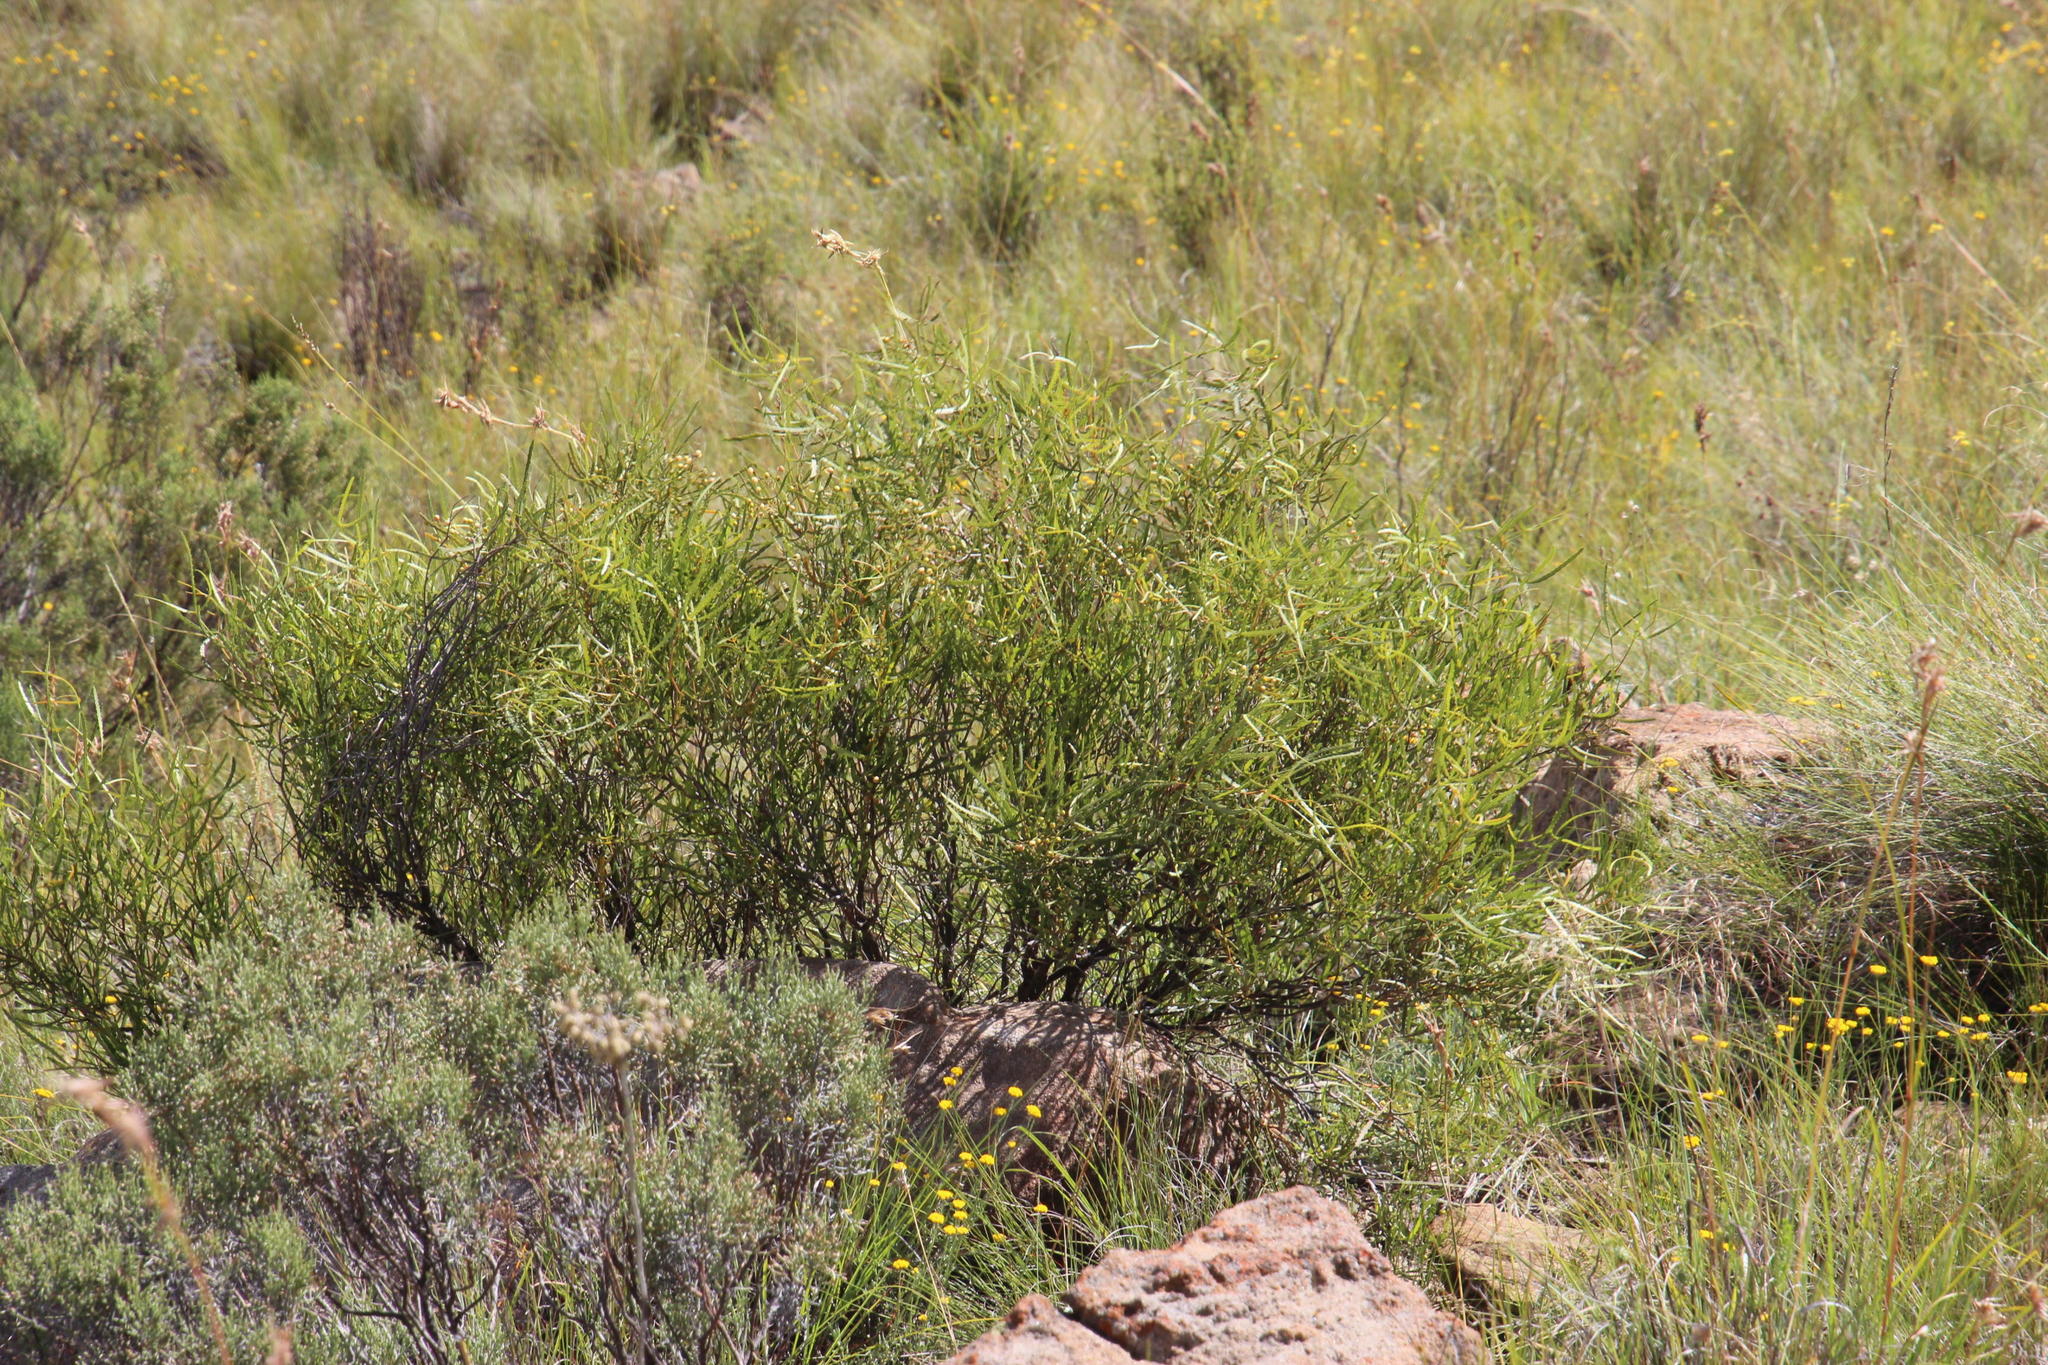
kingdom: Plantae
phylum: Tracheophyta
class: Magnoliopsida
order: Sapindales
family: Anacardiaceae
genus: Searsia
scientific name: Searsia erosa
